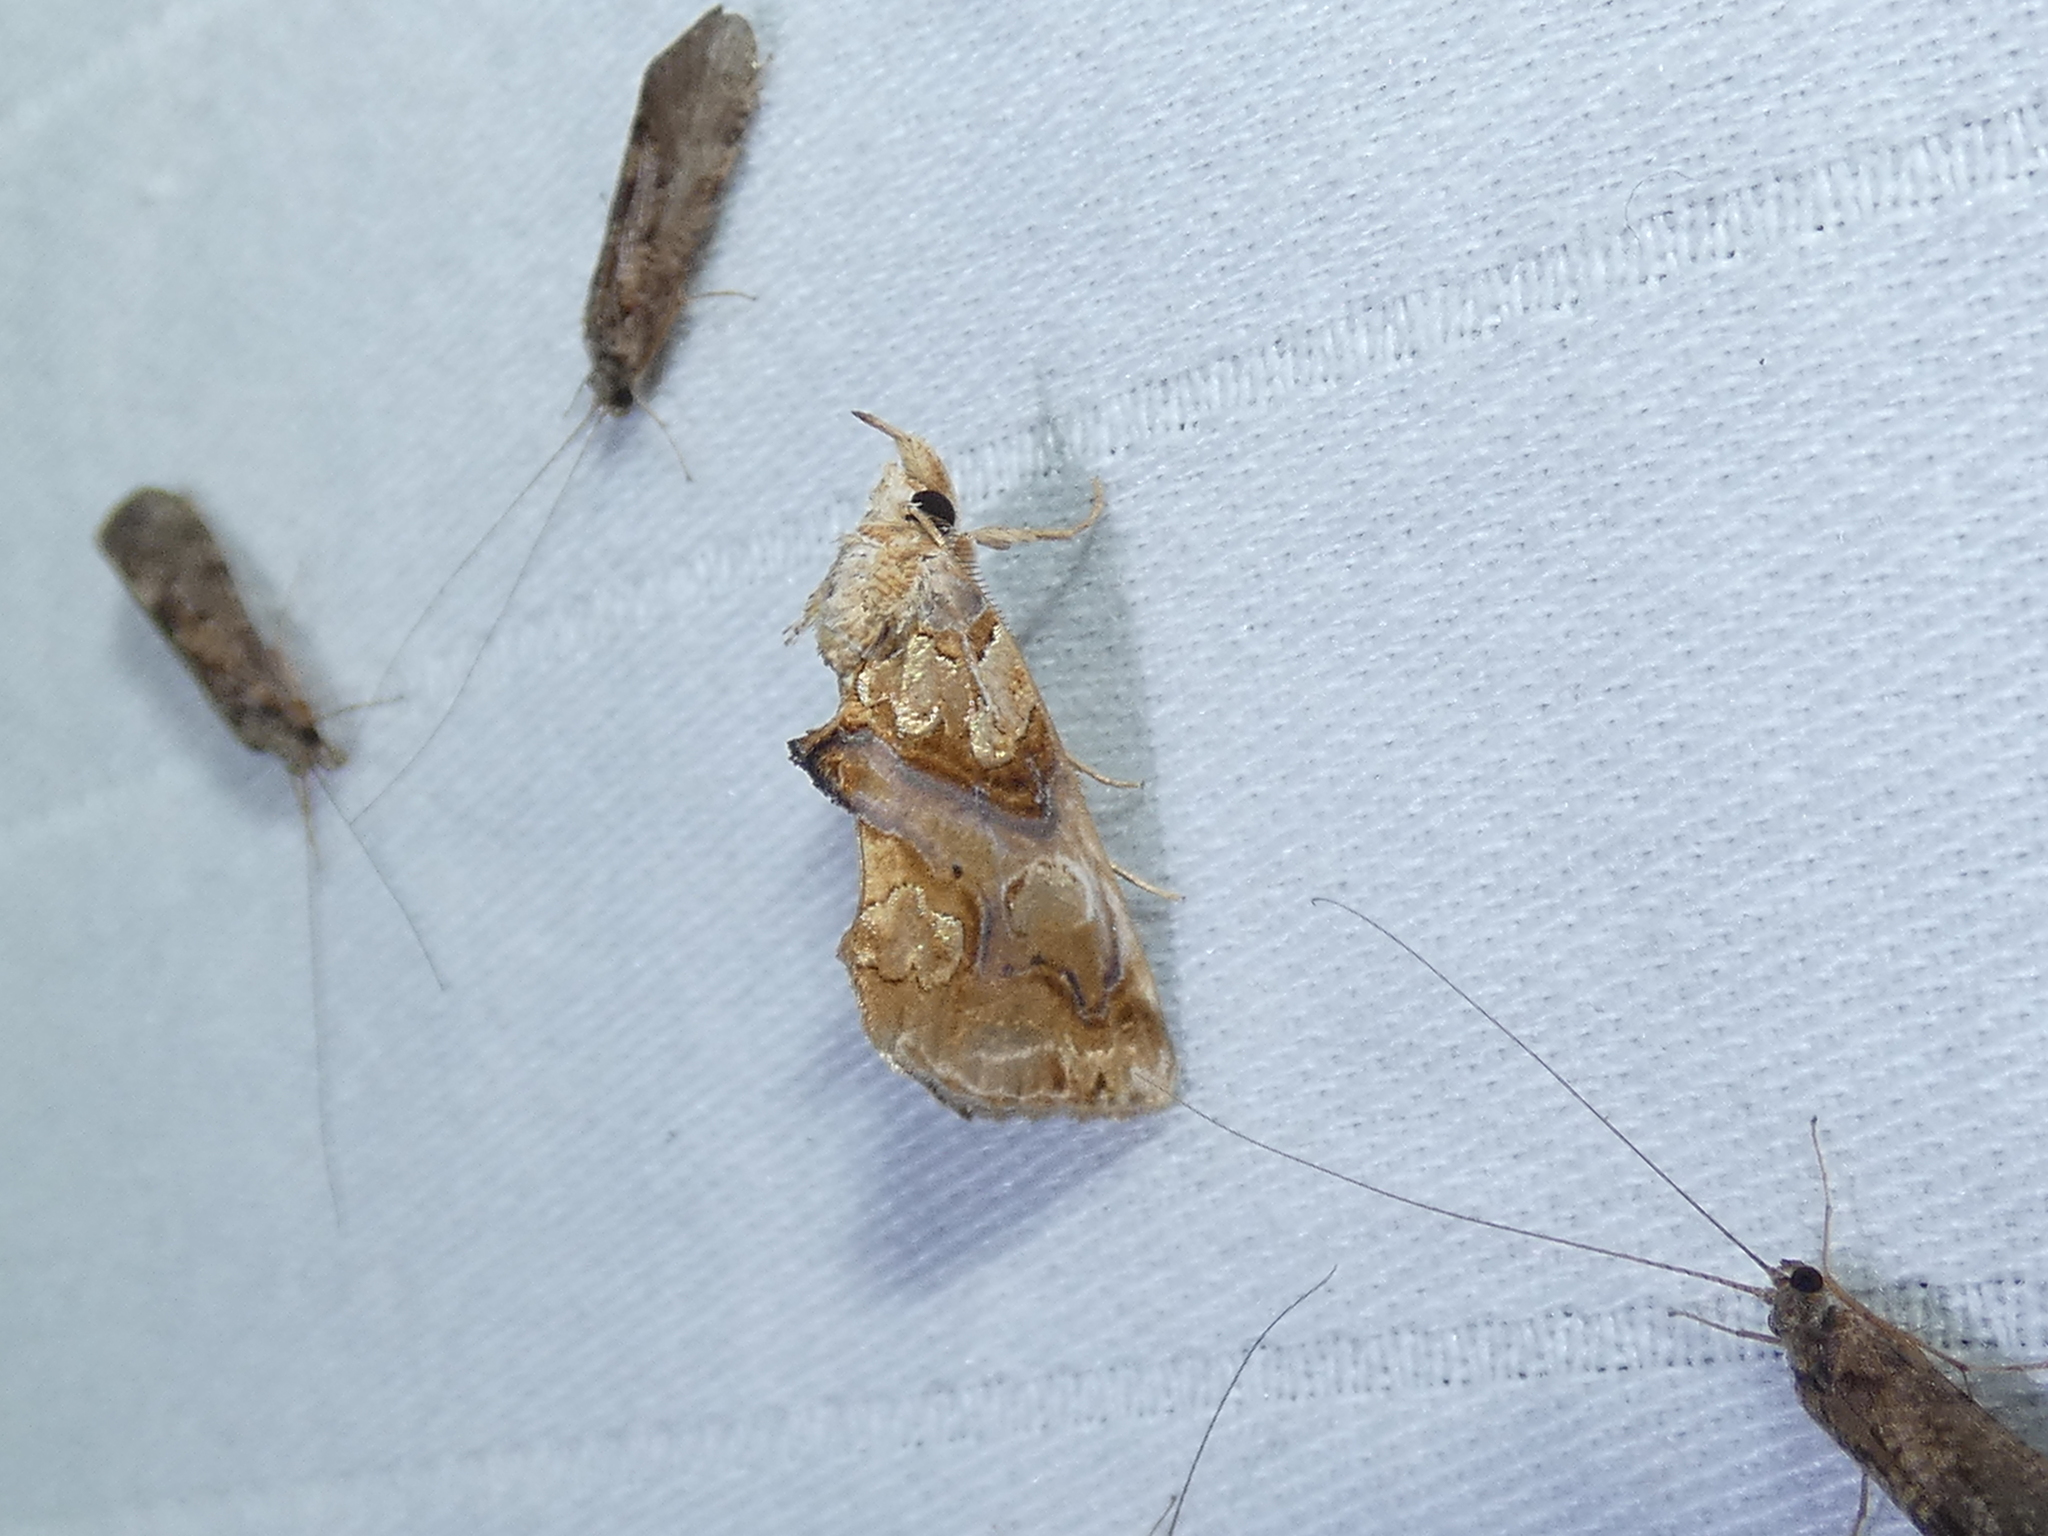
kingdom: Animalia
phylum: Arthropoda
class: Insecta
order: Lepidoptera
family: Erebidae
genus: Plusiodonta
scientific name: Plusiodonta compressipalpis
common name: Moonseed moth
